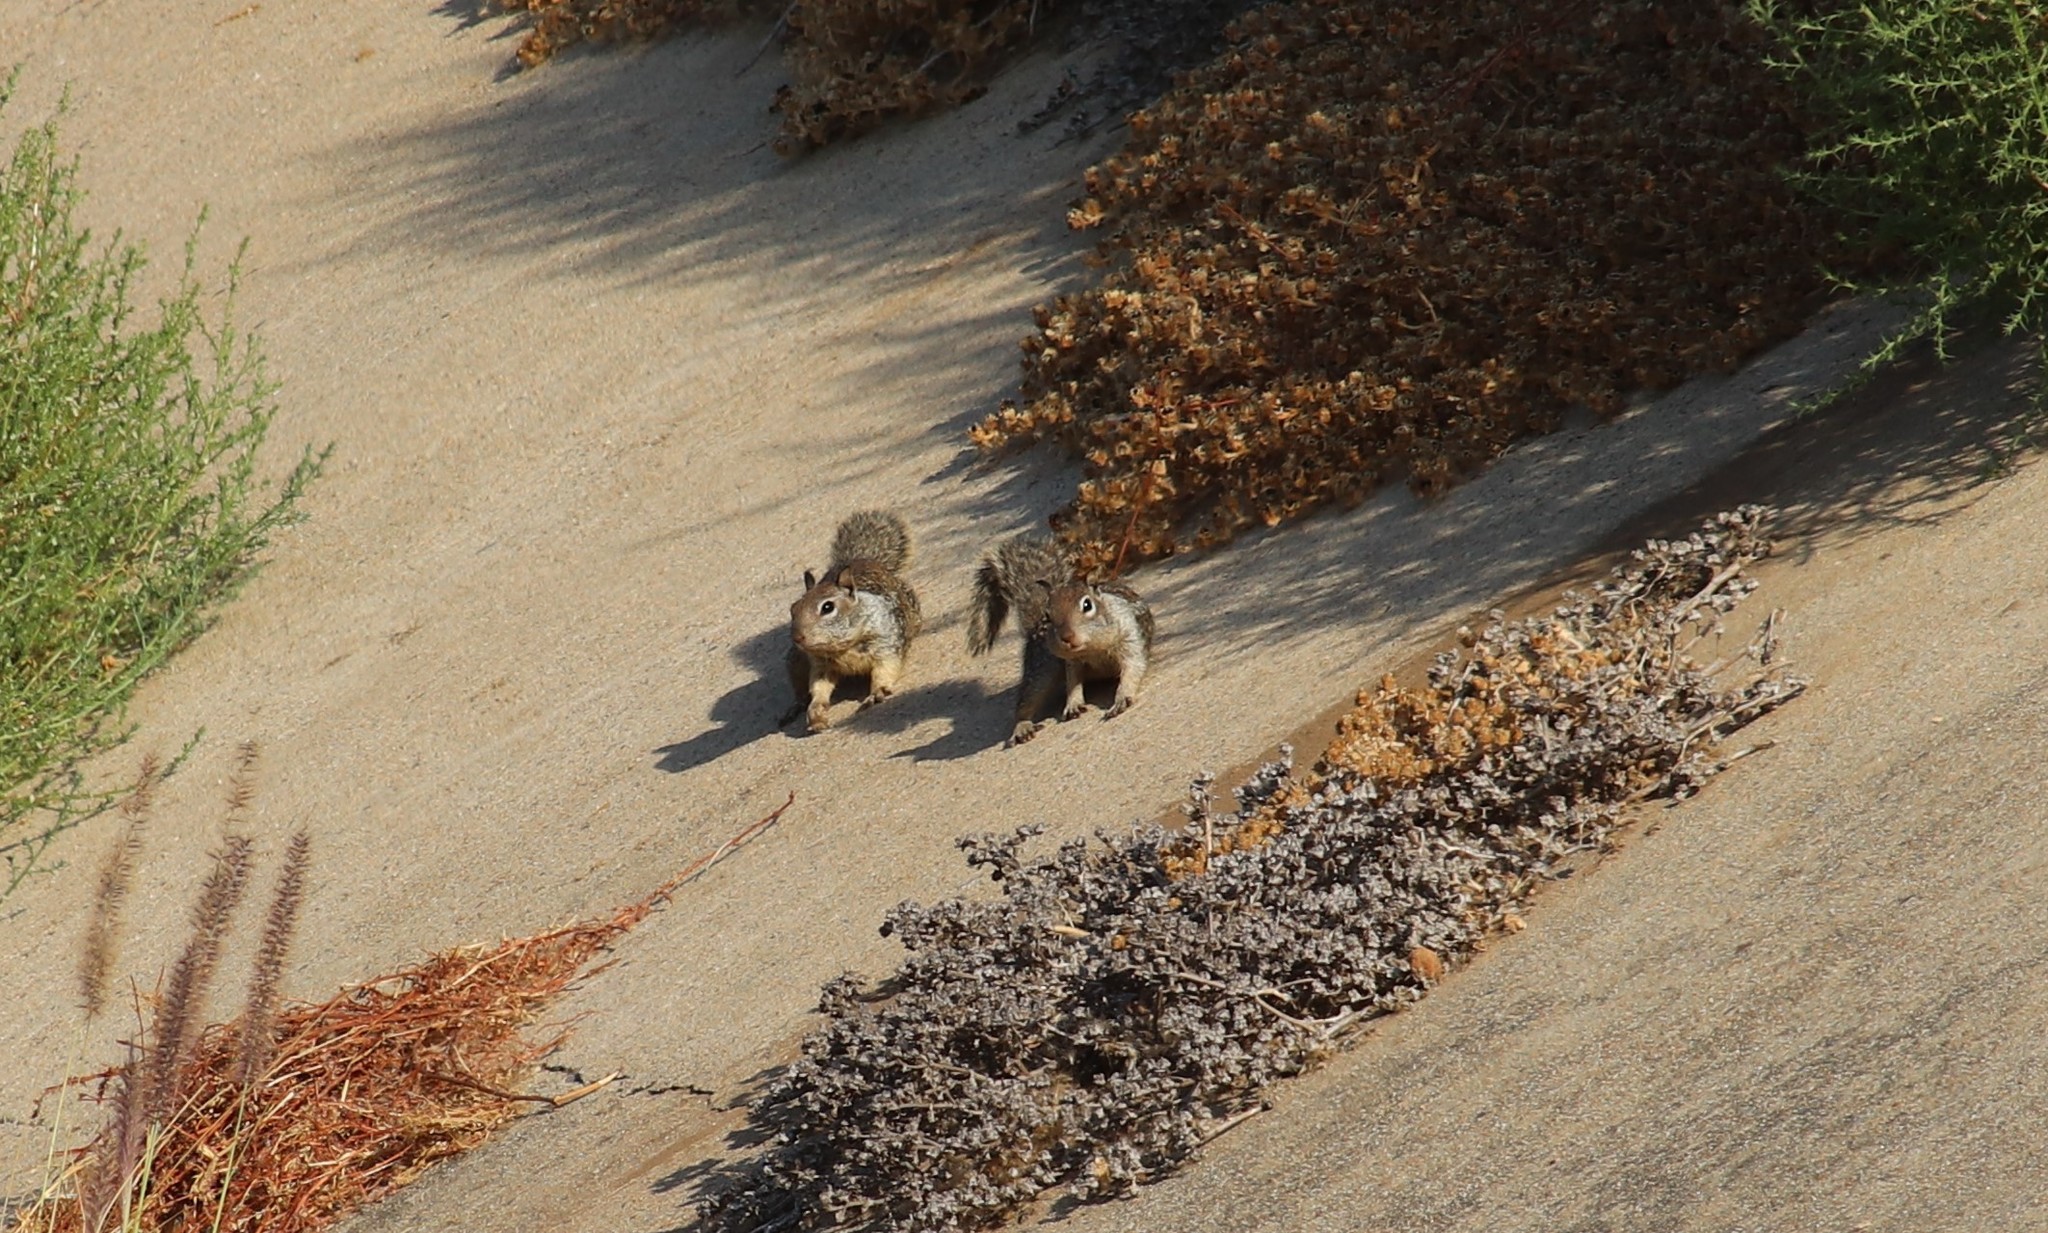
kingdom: Animalia
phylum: Chordata
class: Mammalia
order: Rodentia
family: Sciuridae
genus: Otospermophilus
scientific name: Otospermophilus beecheyi
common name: California ground squirrel
